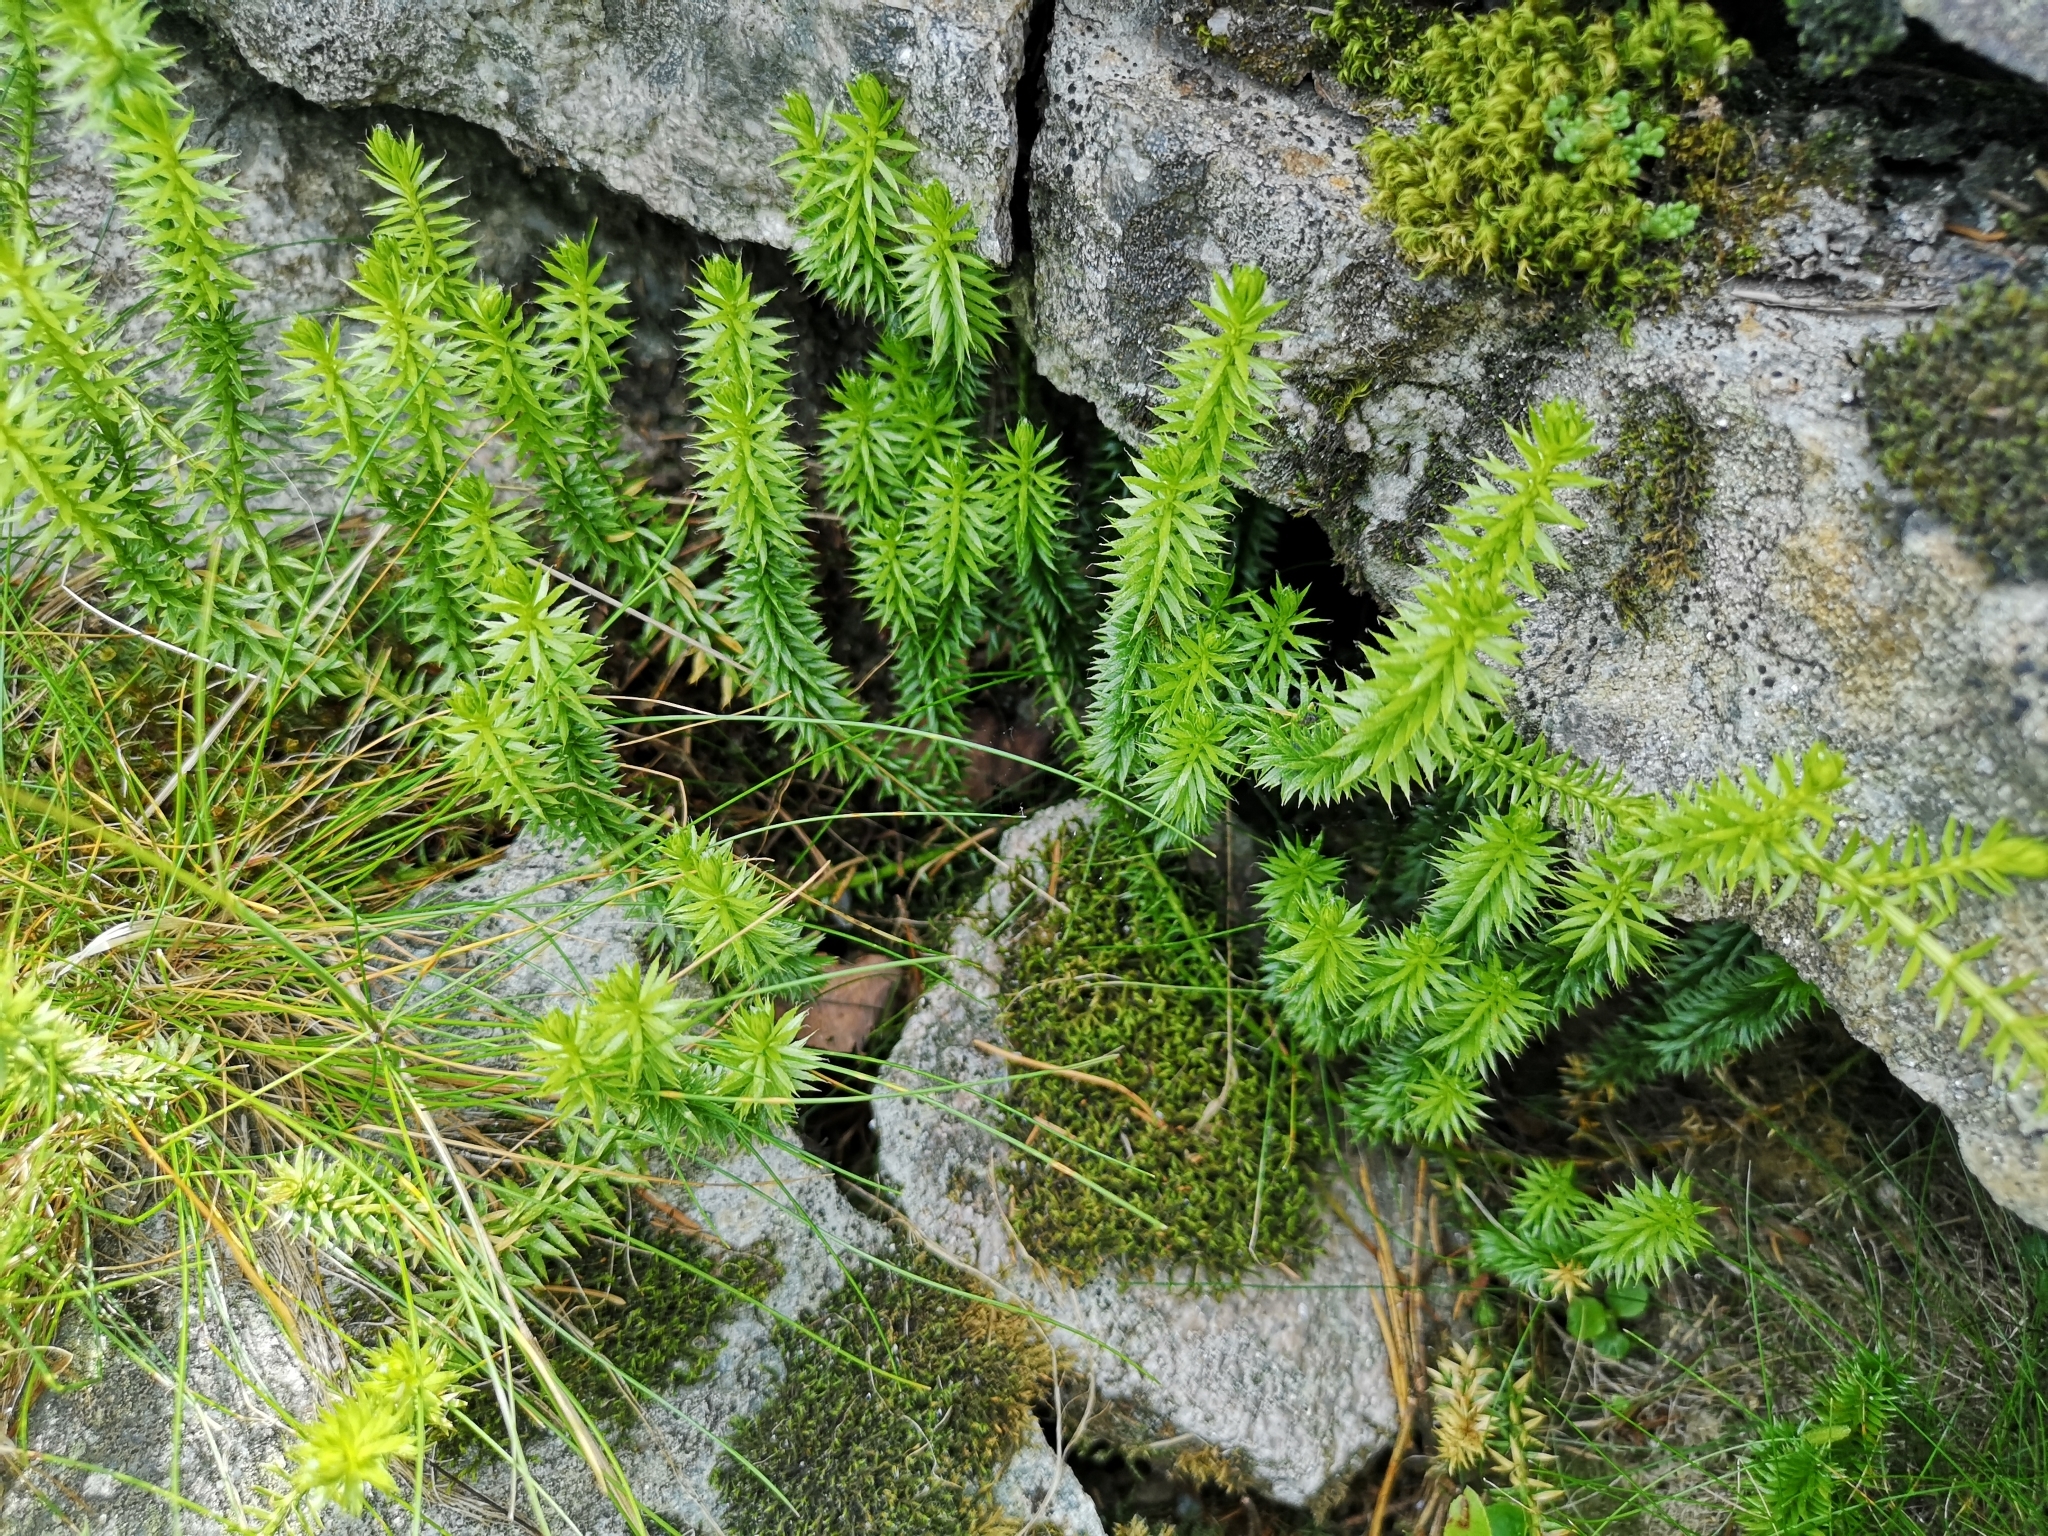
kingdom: Plantae
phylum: Tracheophyta
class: Lycopodiopsida
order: Lycopodiales
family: Lycopodiaceae
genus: Spinulum
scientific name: Spinulum annotinum
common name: Interrupted club-moss
